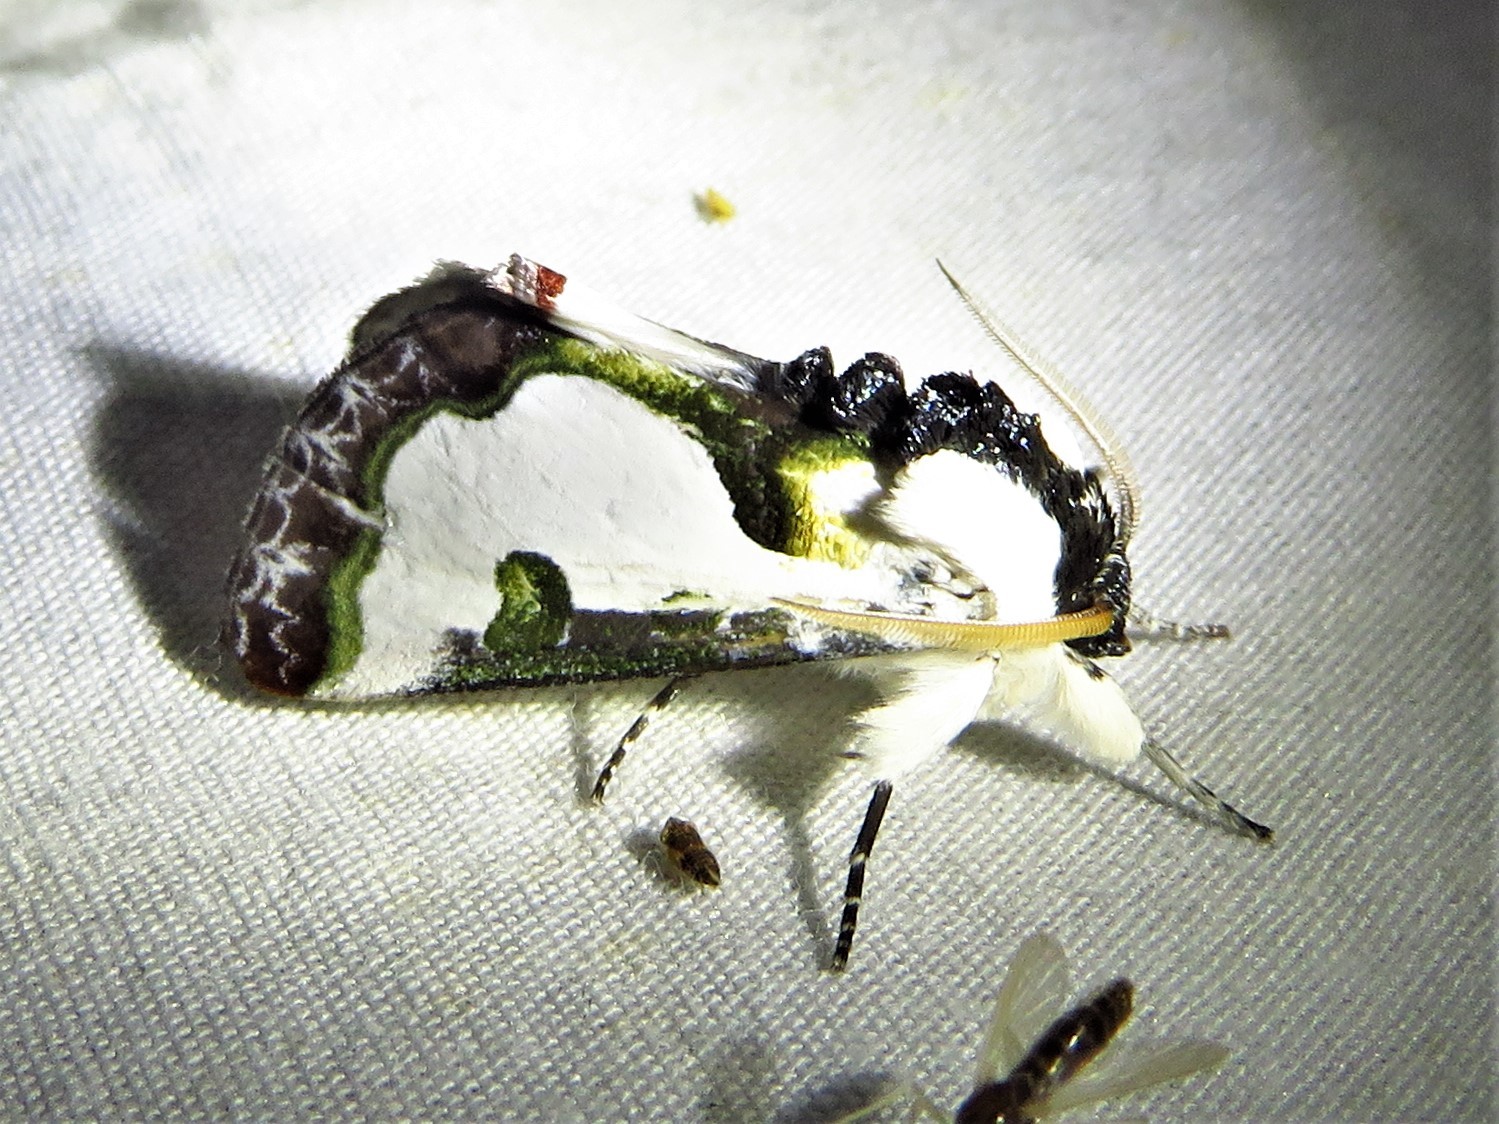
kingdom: Animalia
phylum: Arthropoda
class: Insecta
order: Lepidoptera
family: Noctuidae
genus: Xerociris
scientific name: Xerociris wilsonii
